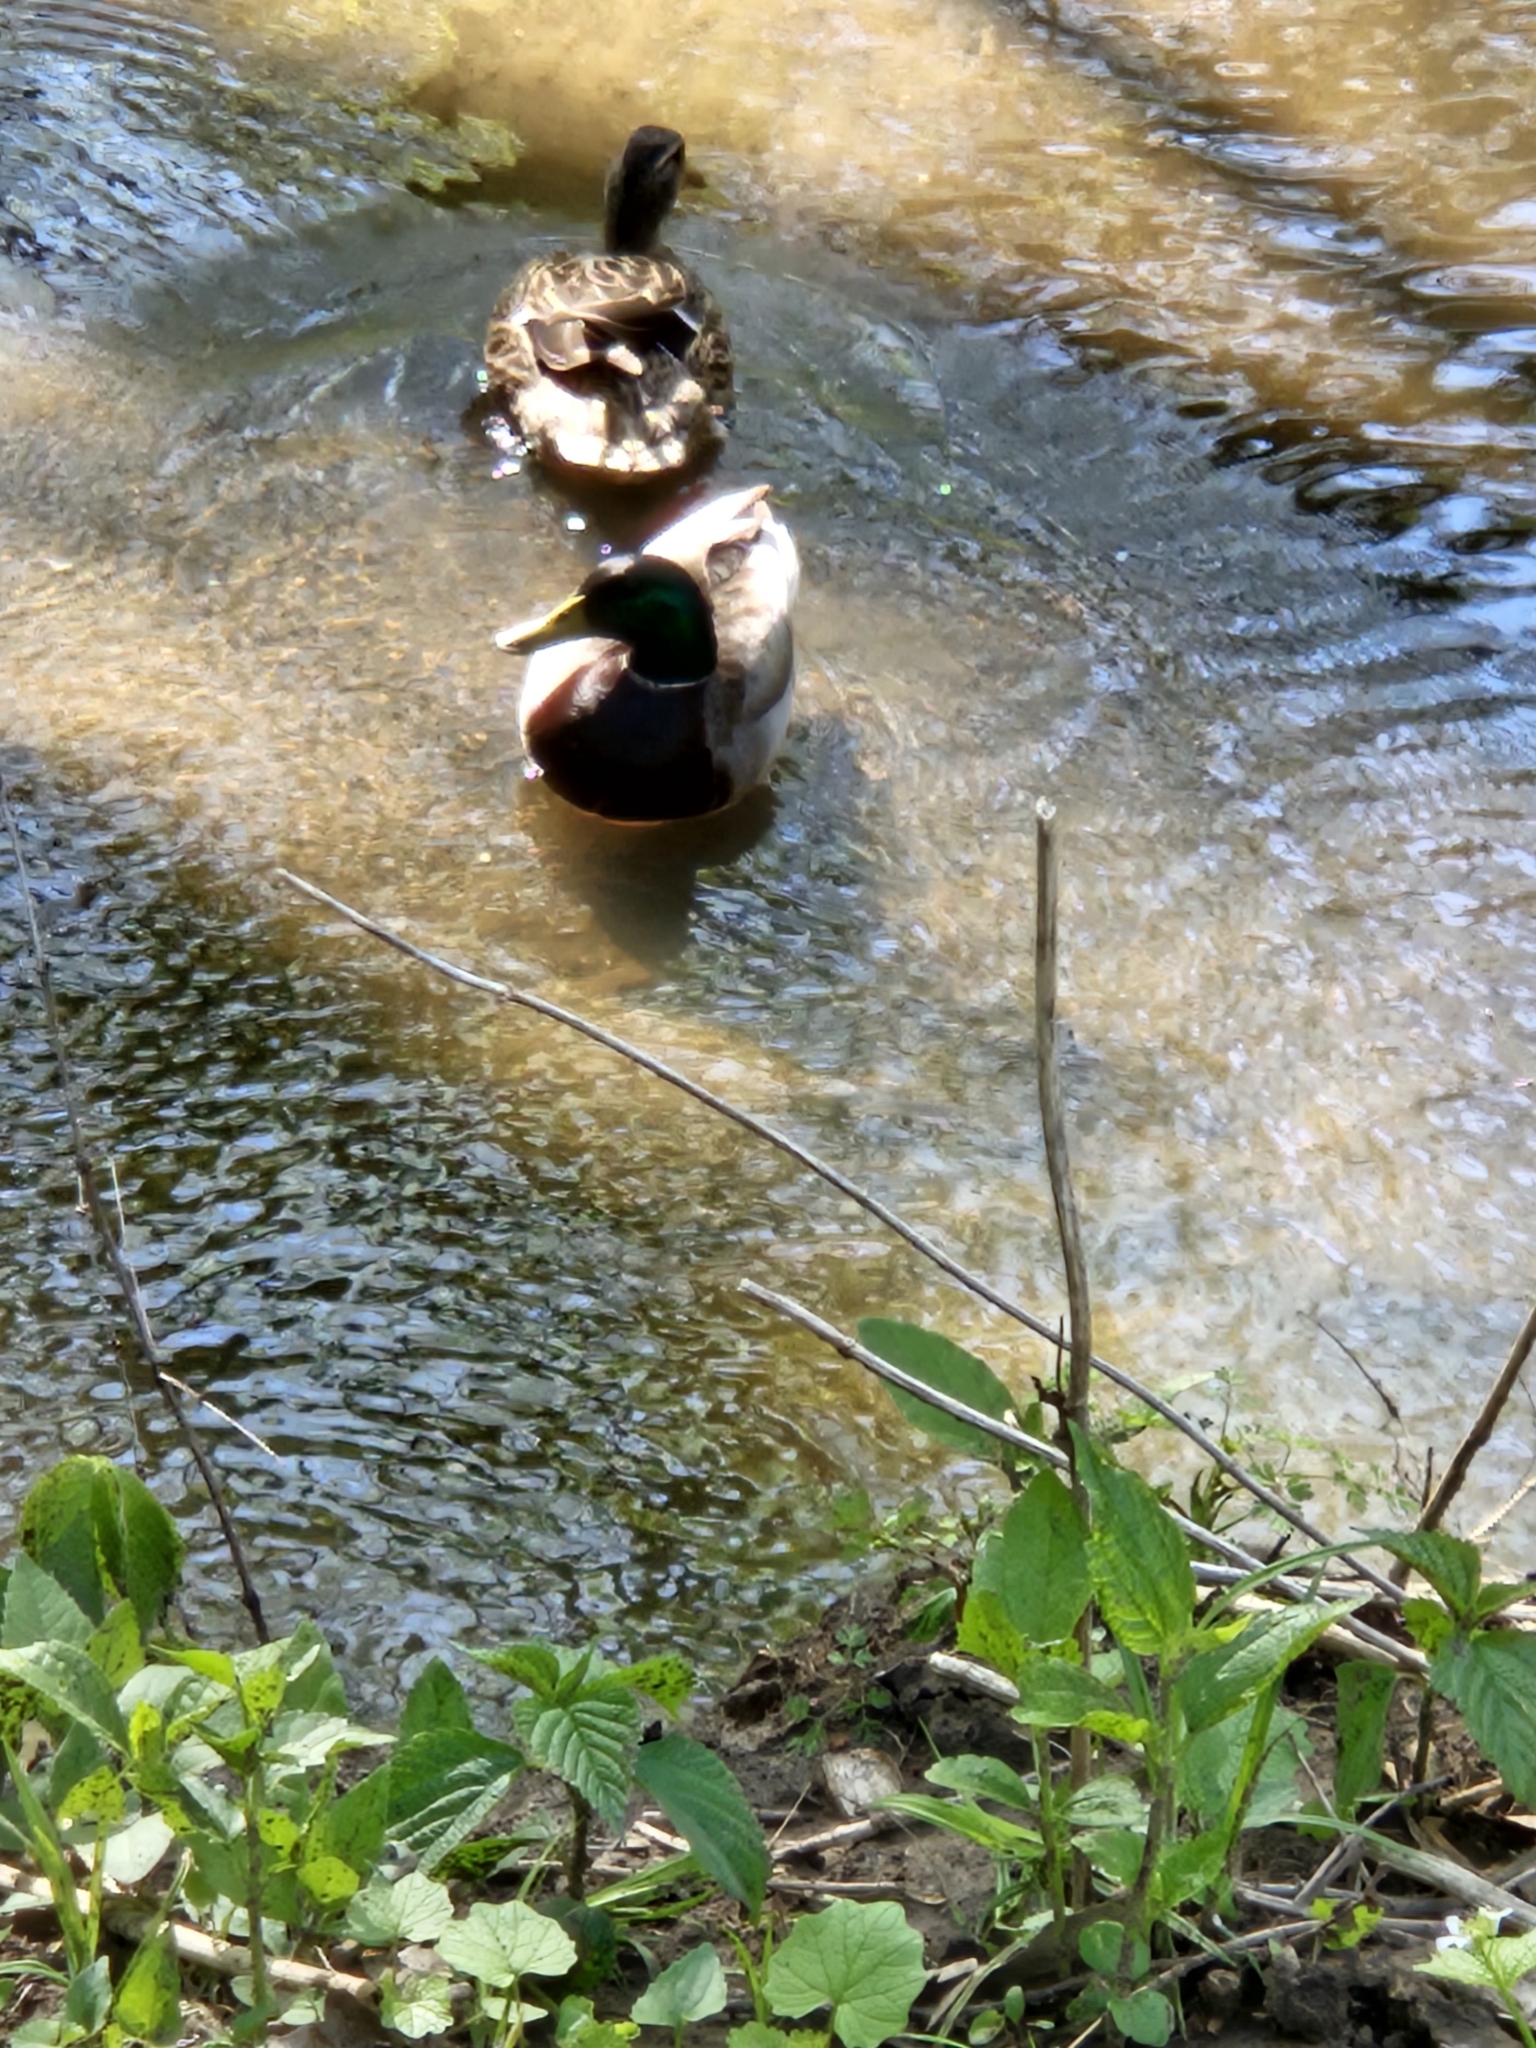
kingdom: Animalia
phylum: Chordata
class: Aves
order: Anseriformes
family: Anatidae
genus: Anas
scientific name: Anas platyrhynchos
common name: Mallard
